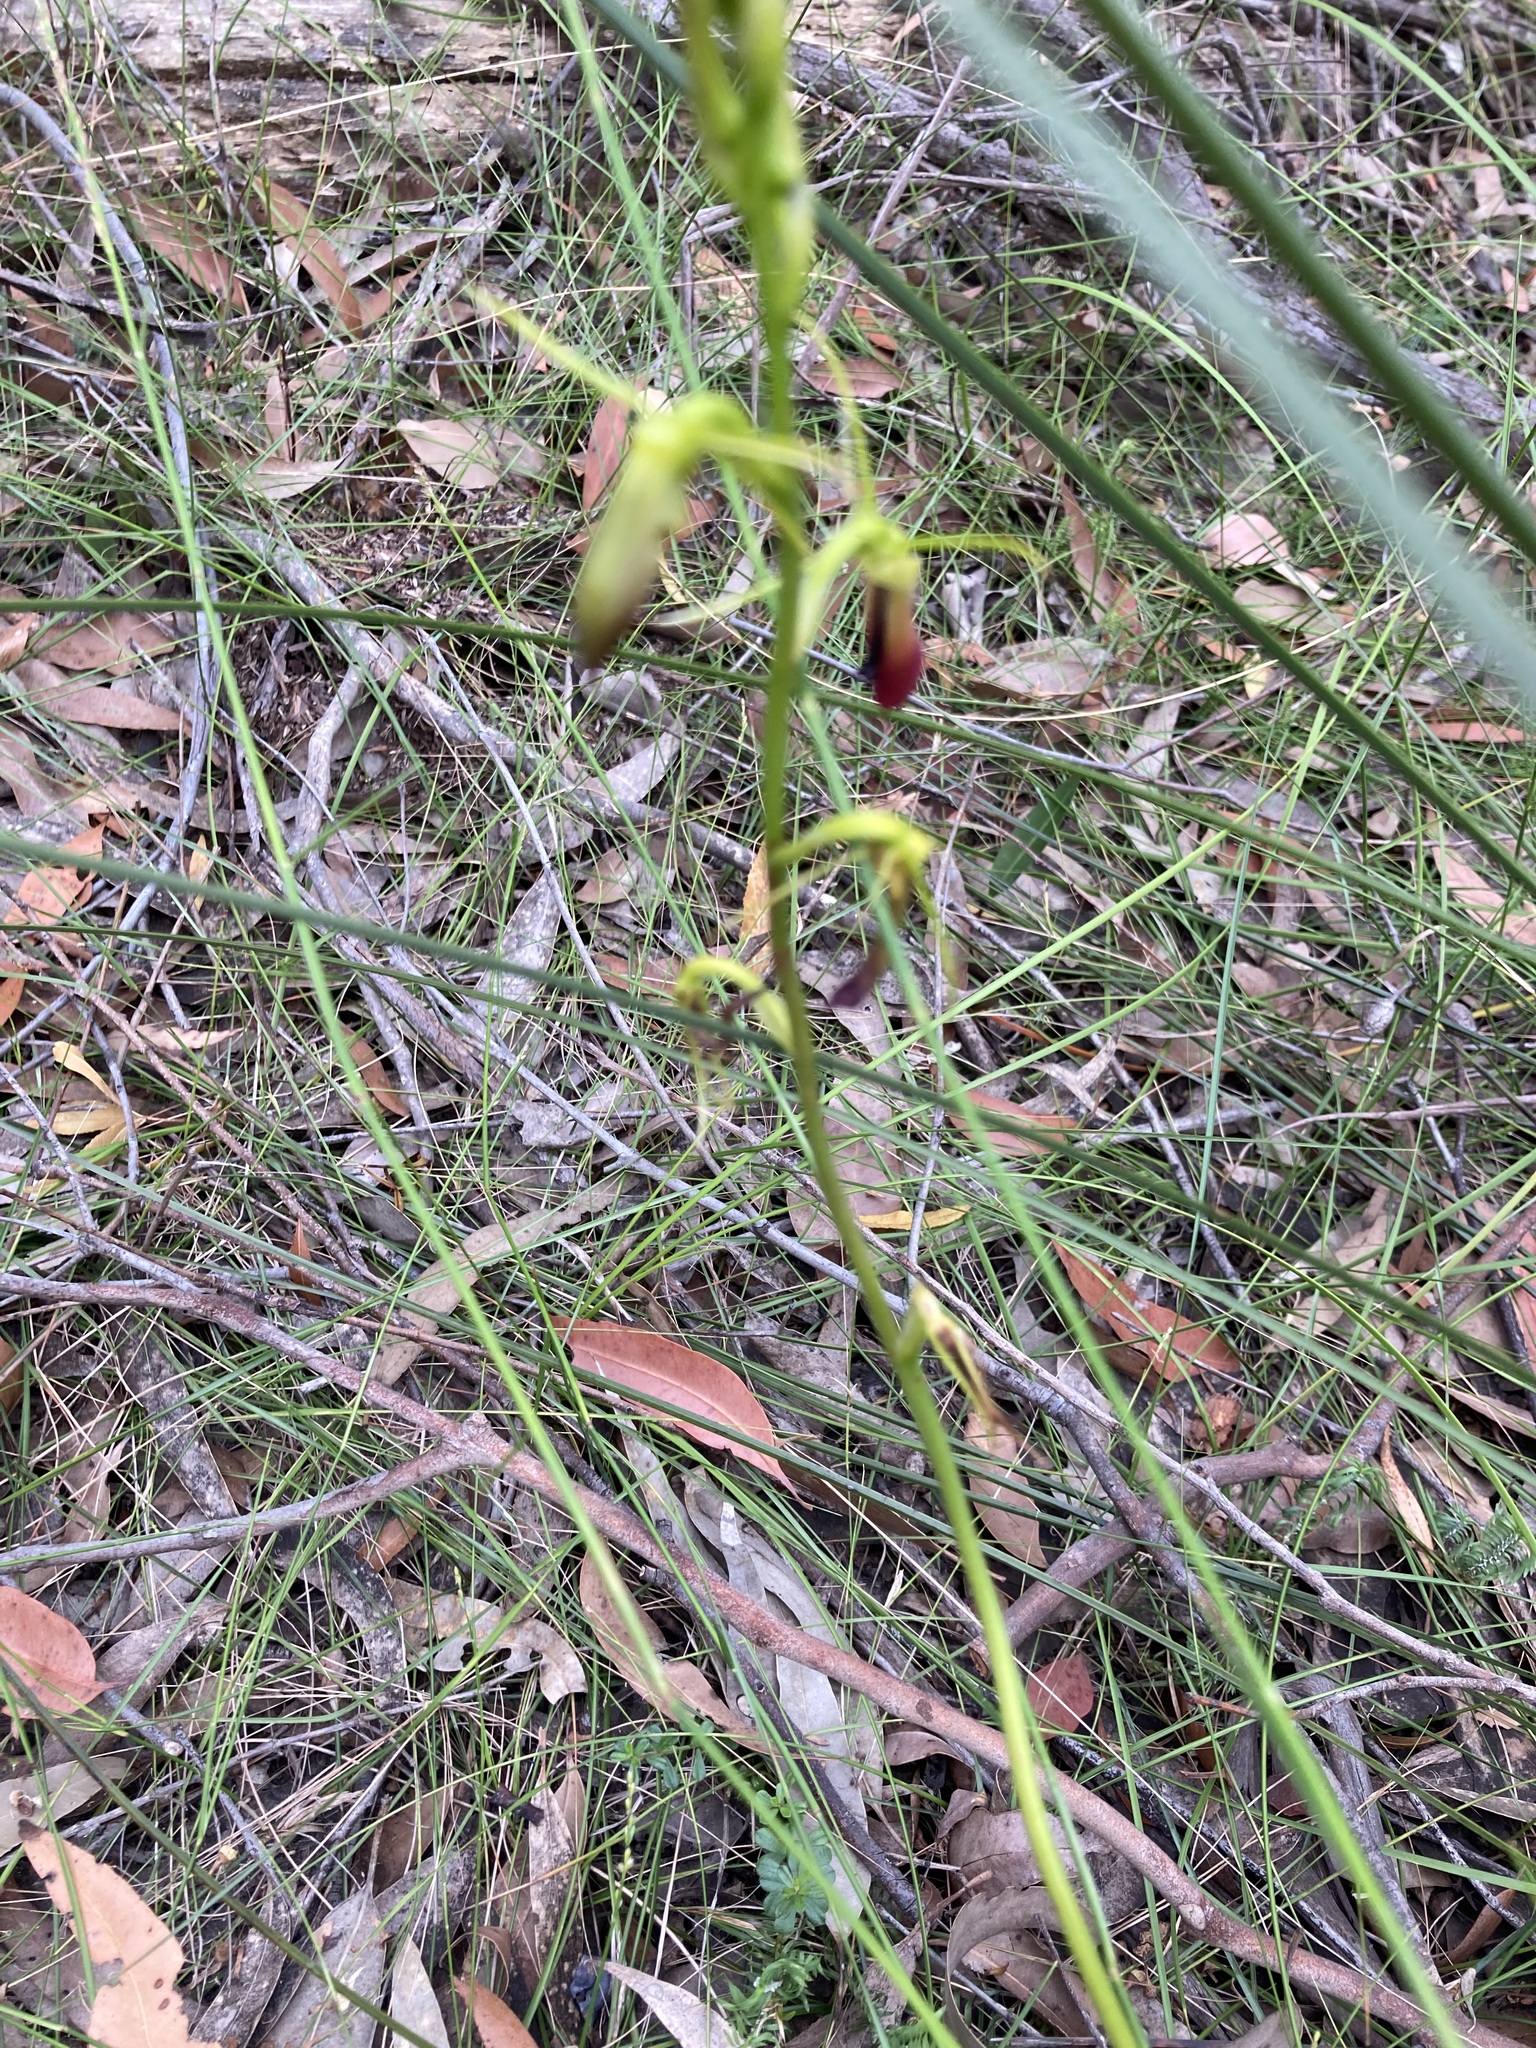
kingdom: Plantae
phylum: Tracheophyta
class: Liliopsida
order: Asparagales
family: Orchidaceae
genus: Cryptostylis
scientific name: Cryptostylis subulata
